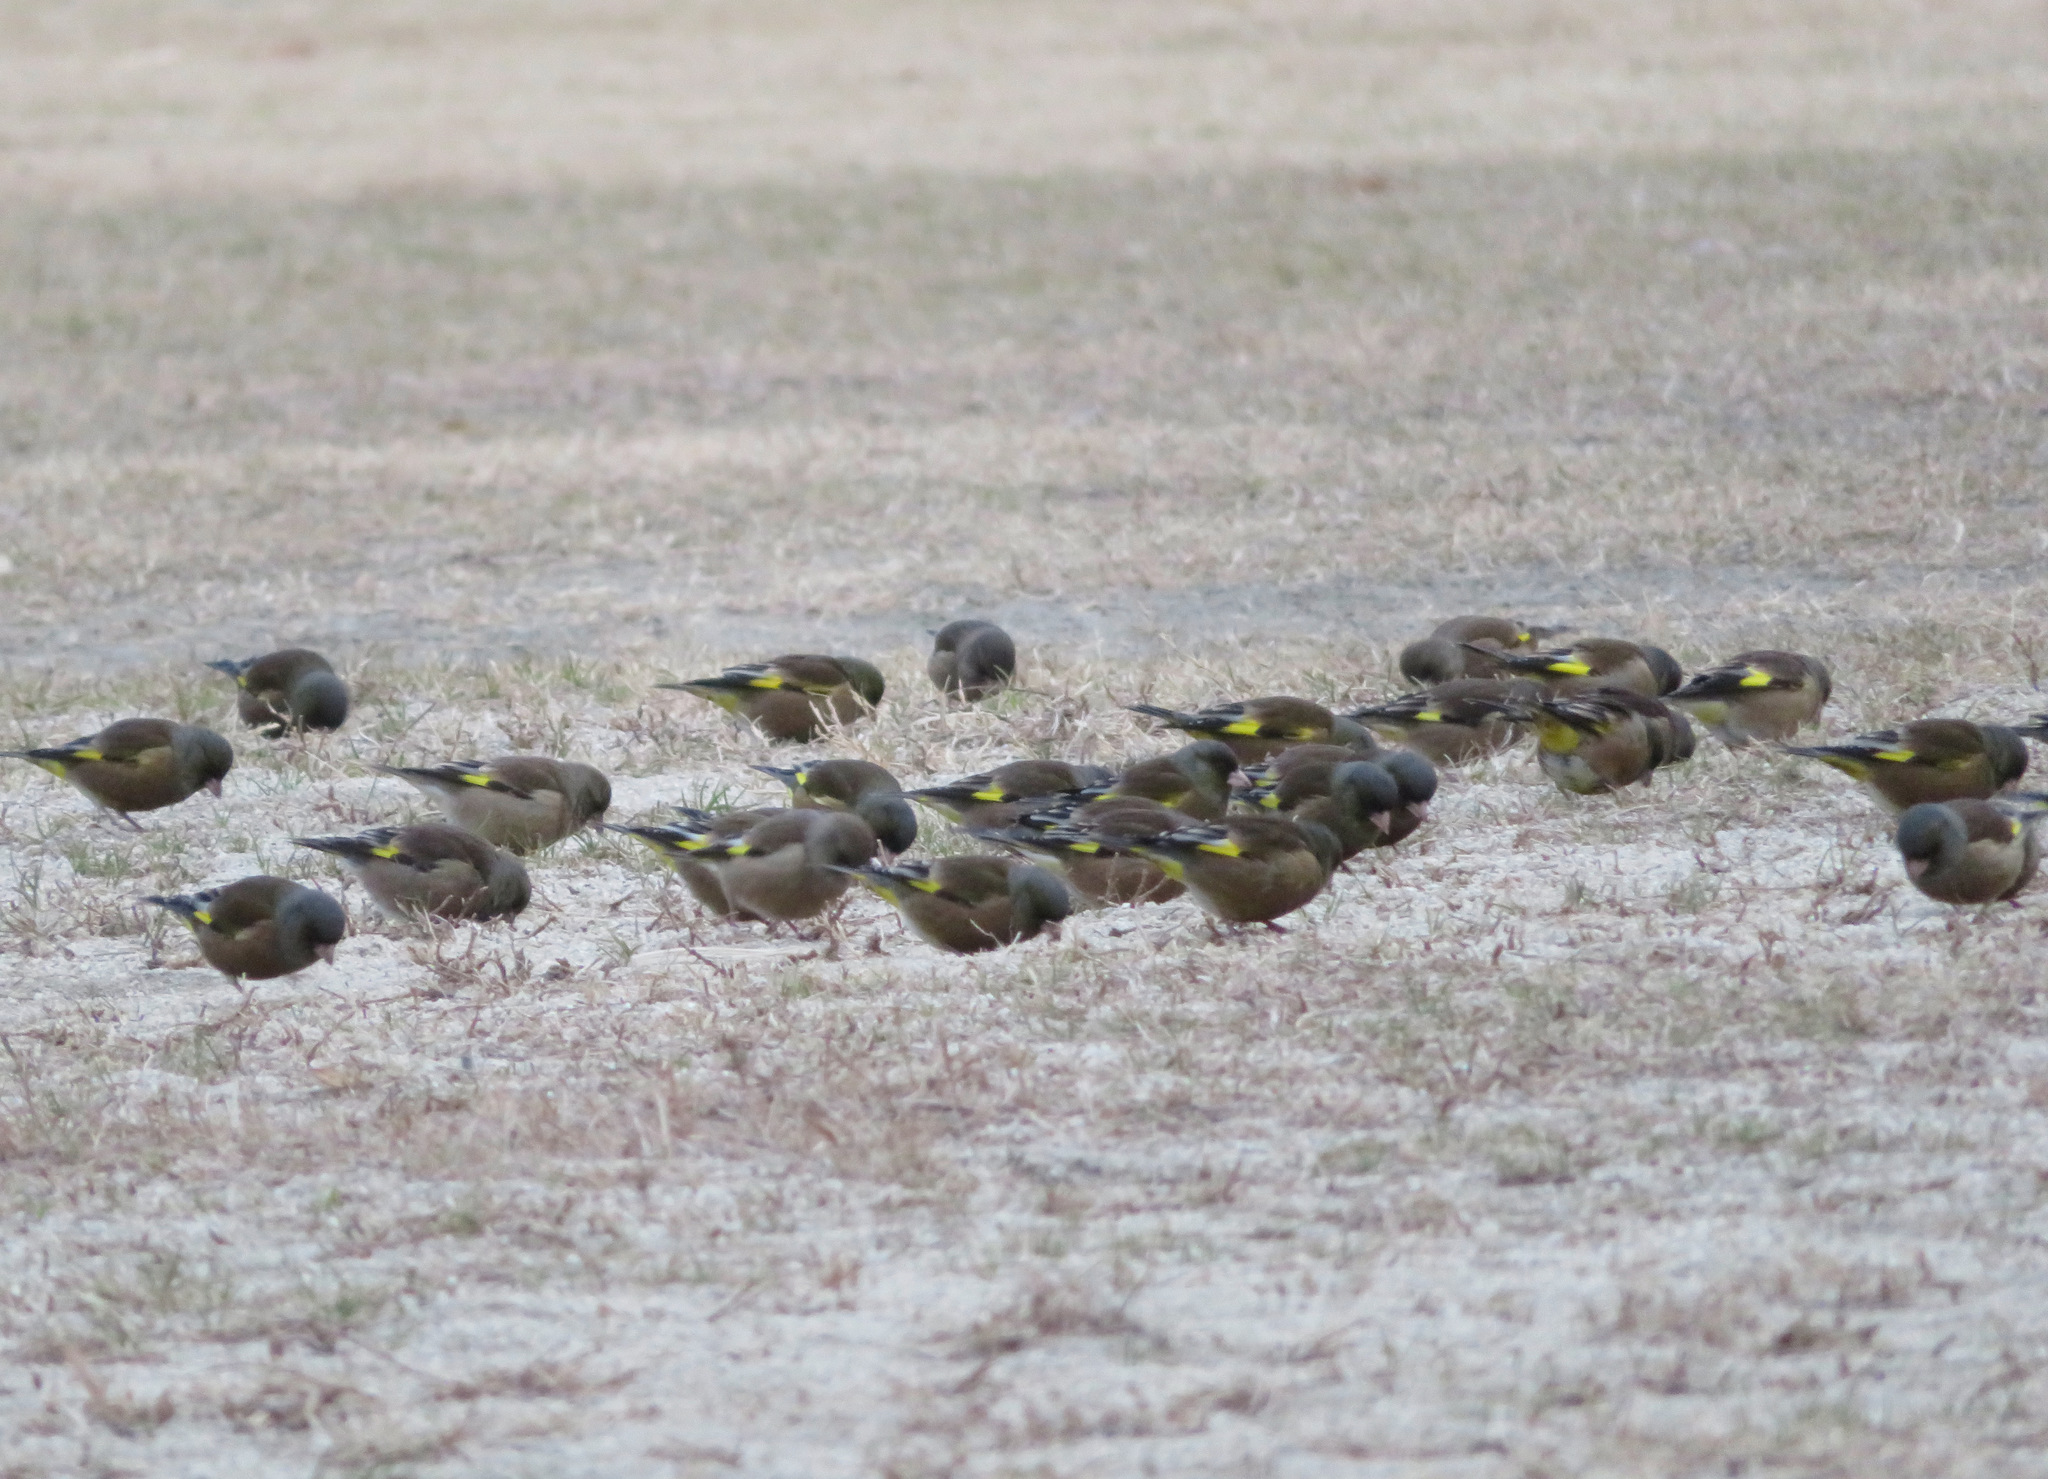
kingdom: Plantae
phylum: Tracheophyta
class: Liliopsida
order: Poales
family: Poaceae
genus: Chloris
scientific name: Chloris sinica
